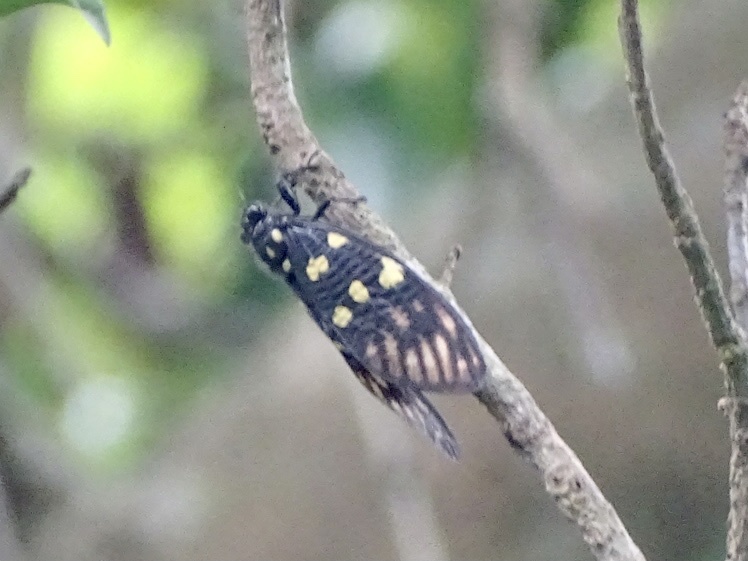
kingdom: Animalia
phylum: Arthropoda
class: Insecta
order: Hemiptera
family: Cicadidae
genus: Gaeana
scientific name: Gaeana maculata
